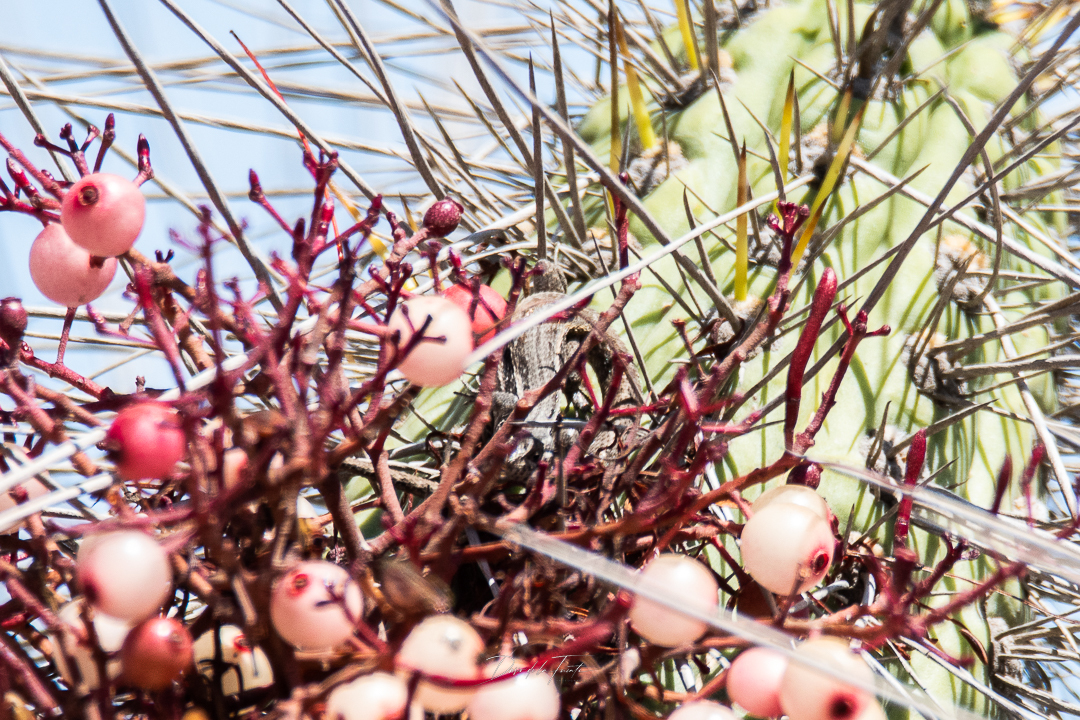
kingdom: Animalia
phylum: Chordata
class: Squamata
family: Liolaemidae
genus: Liolaemus
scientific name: Liolaemus fuscus
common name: Brown tree iguana
